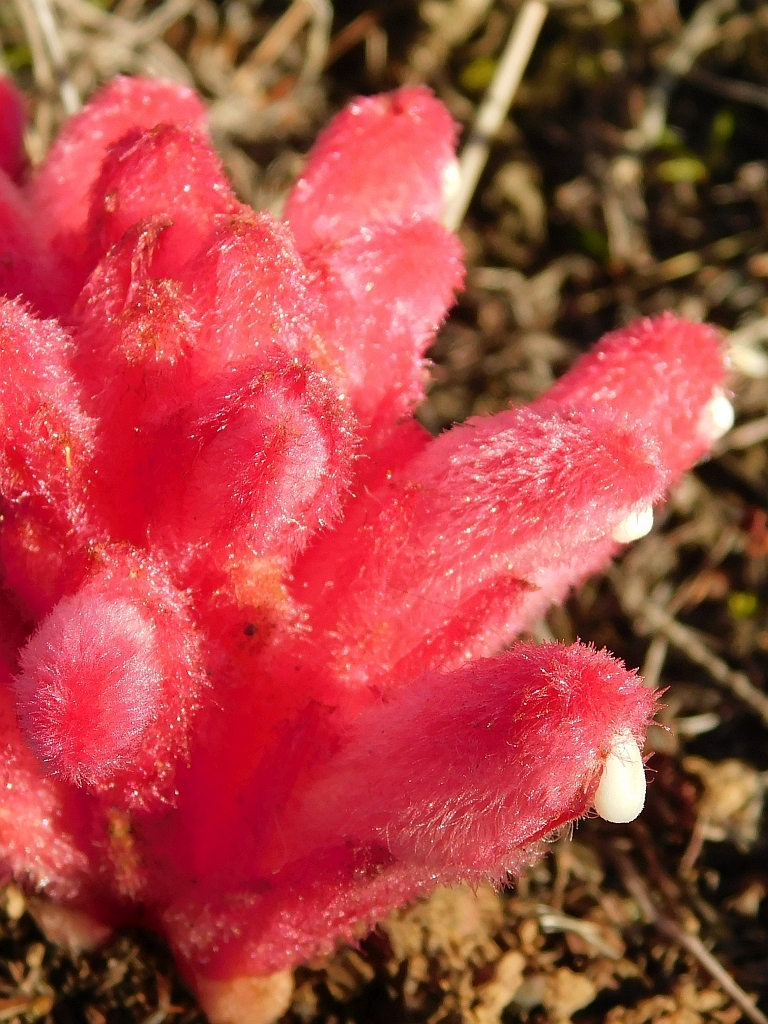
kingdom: Plantae
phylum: Tracheophyta
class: Magnoliopsida
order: Lamiales
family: Orobanchaceae
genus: Hyobanche
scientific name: Hyobanche sanguinea
